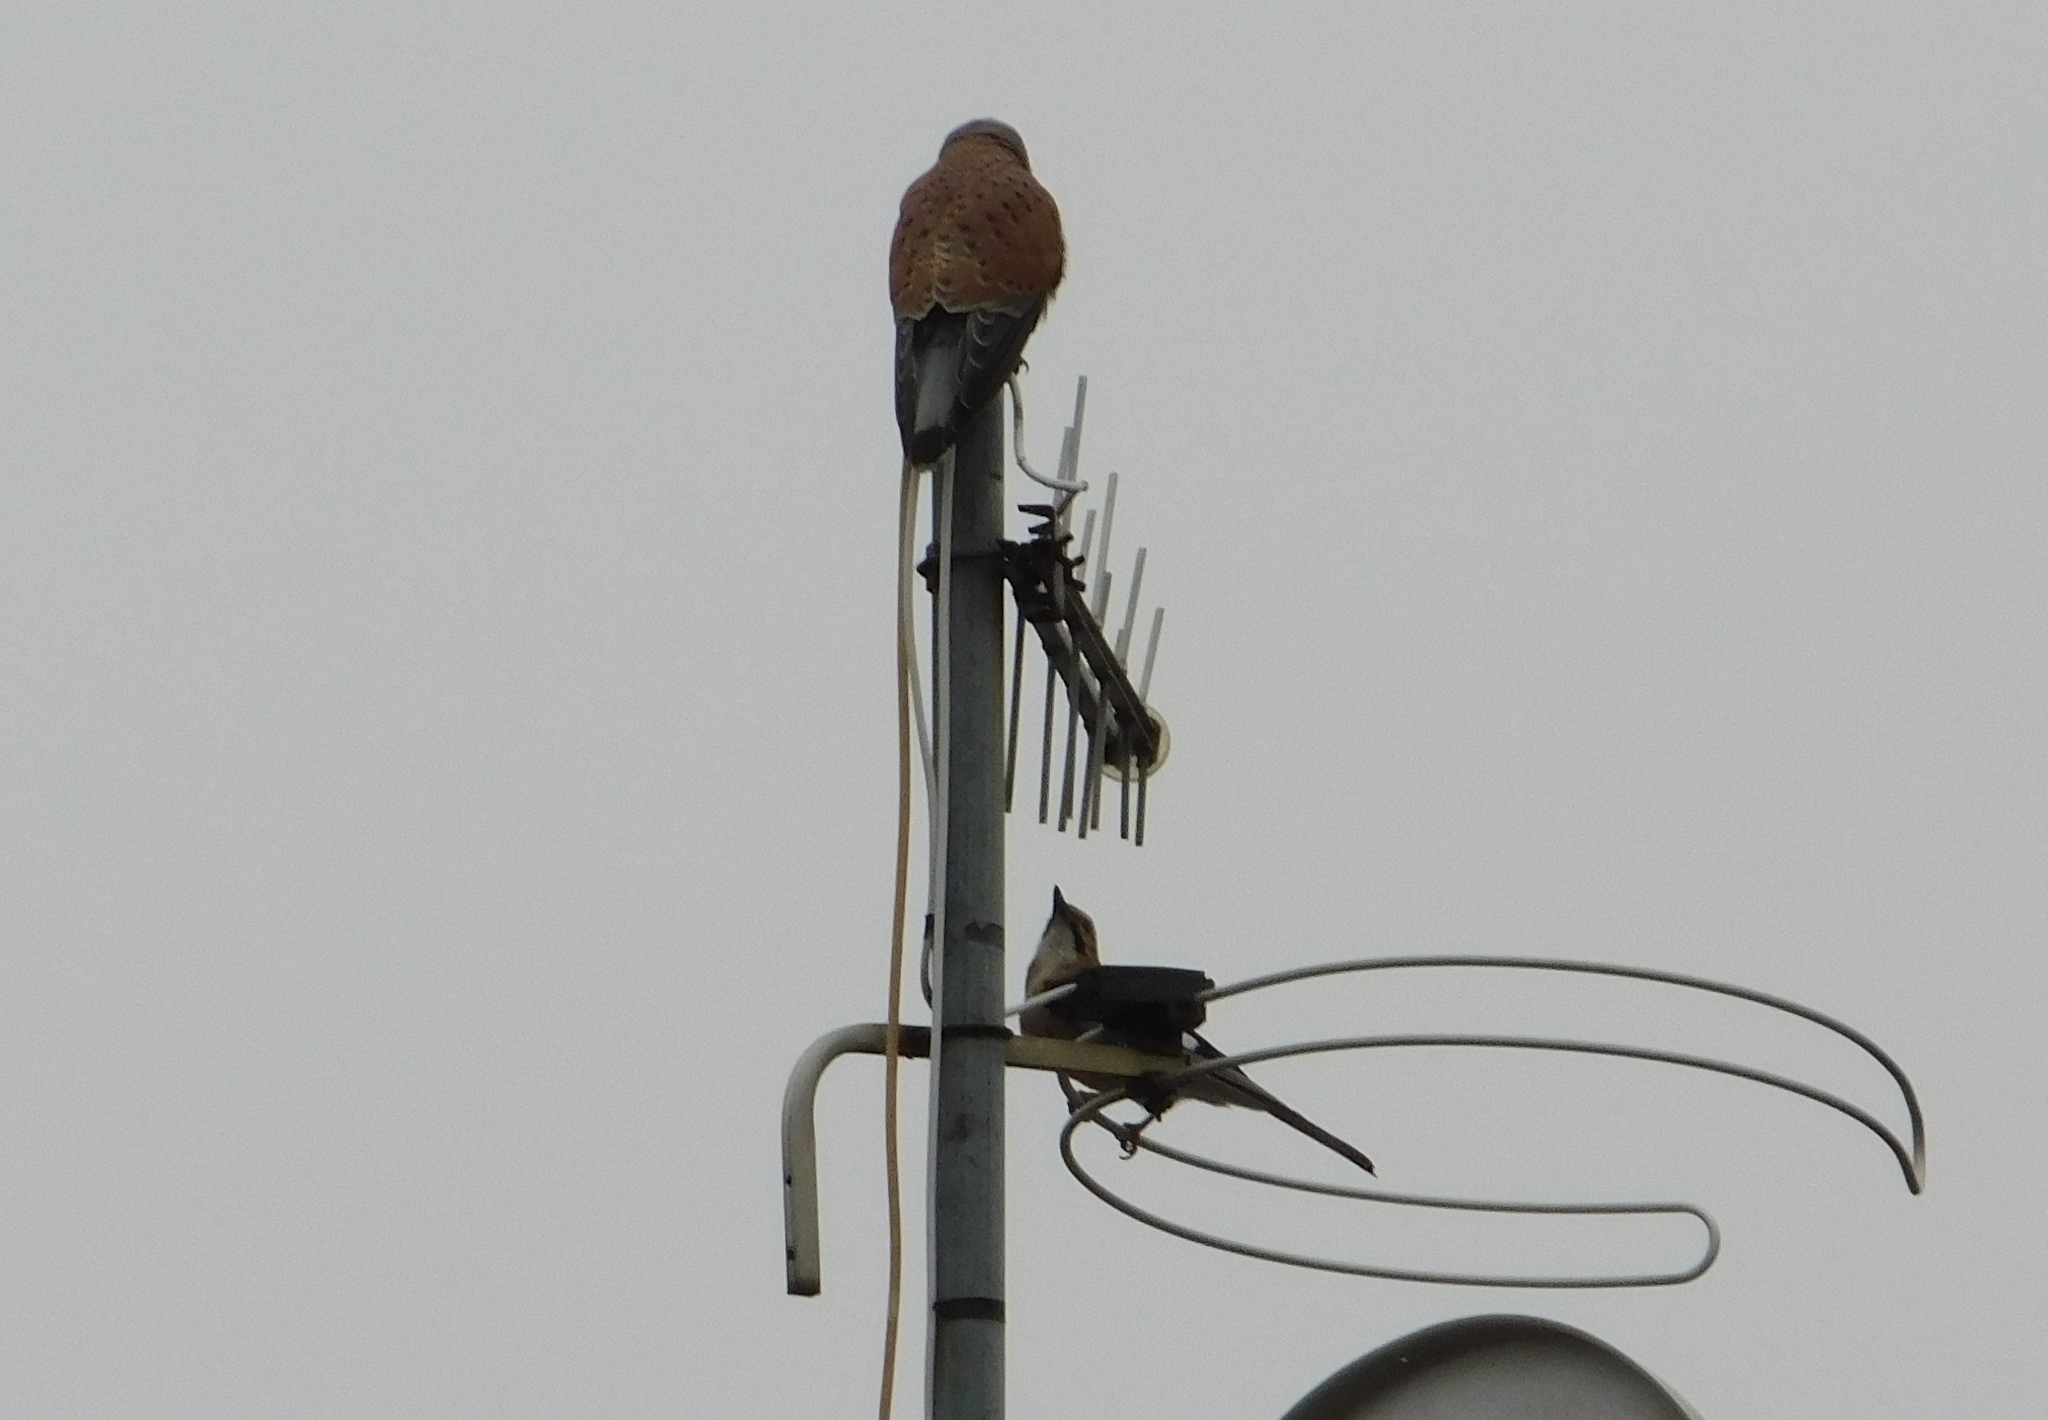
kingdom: Animalia
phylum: Chordata
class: Aves
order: Passeriformes
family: Corvidae
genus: Garrulus
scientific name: Garrulus glandarius
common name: Eurasian jay
